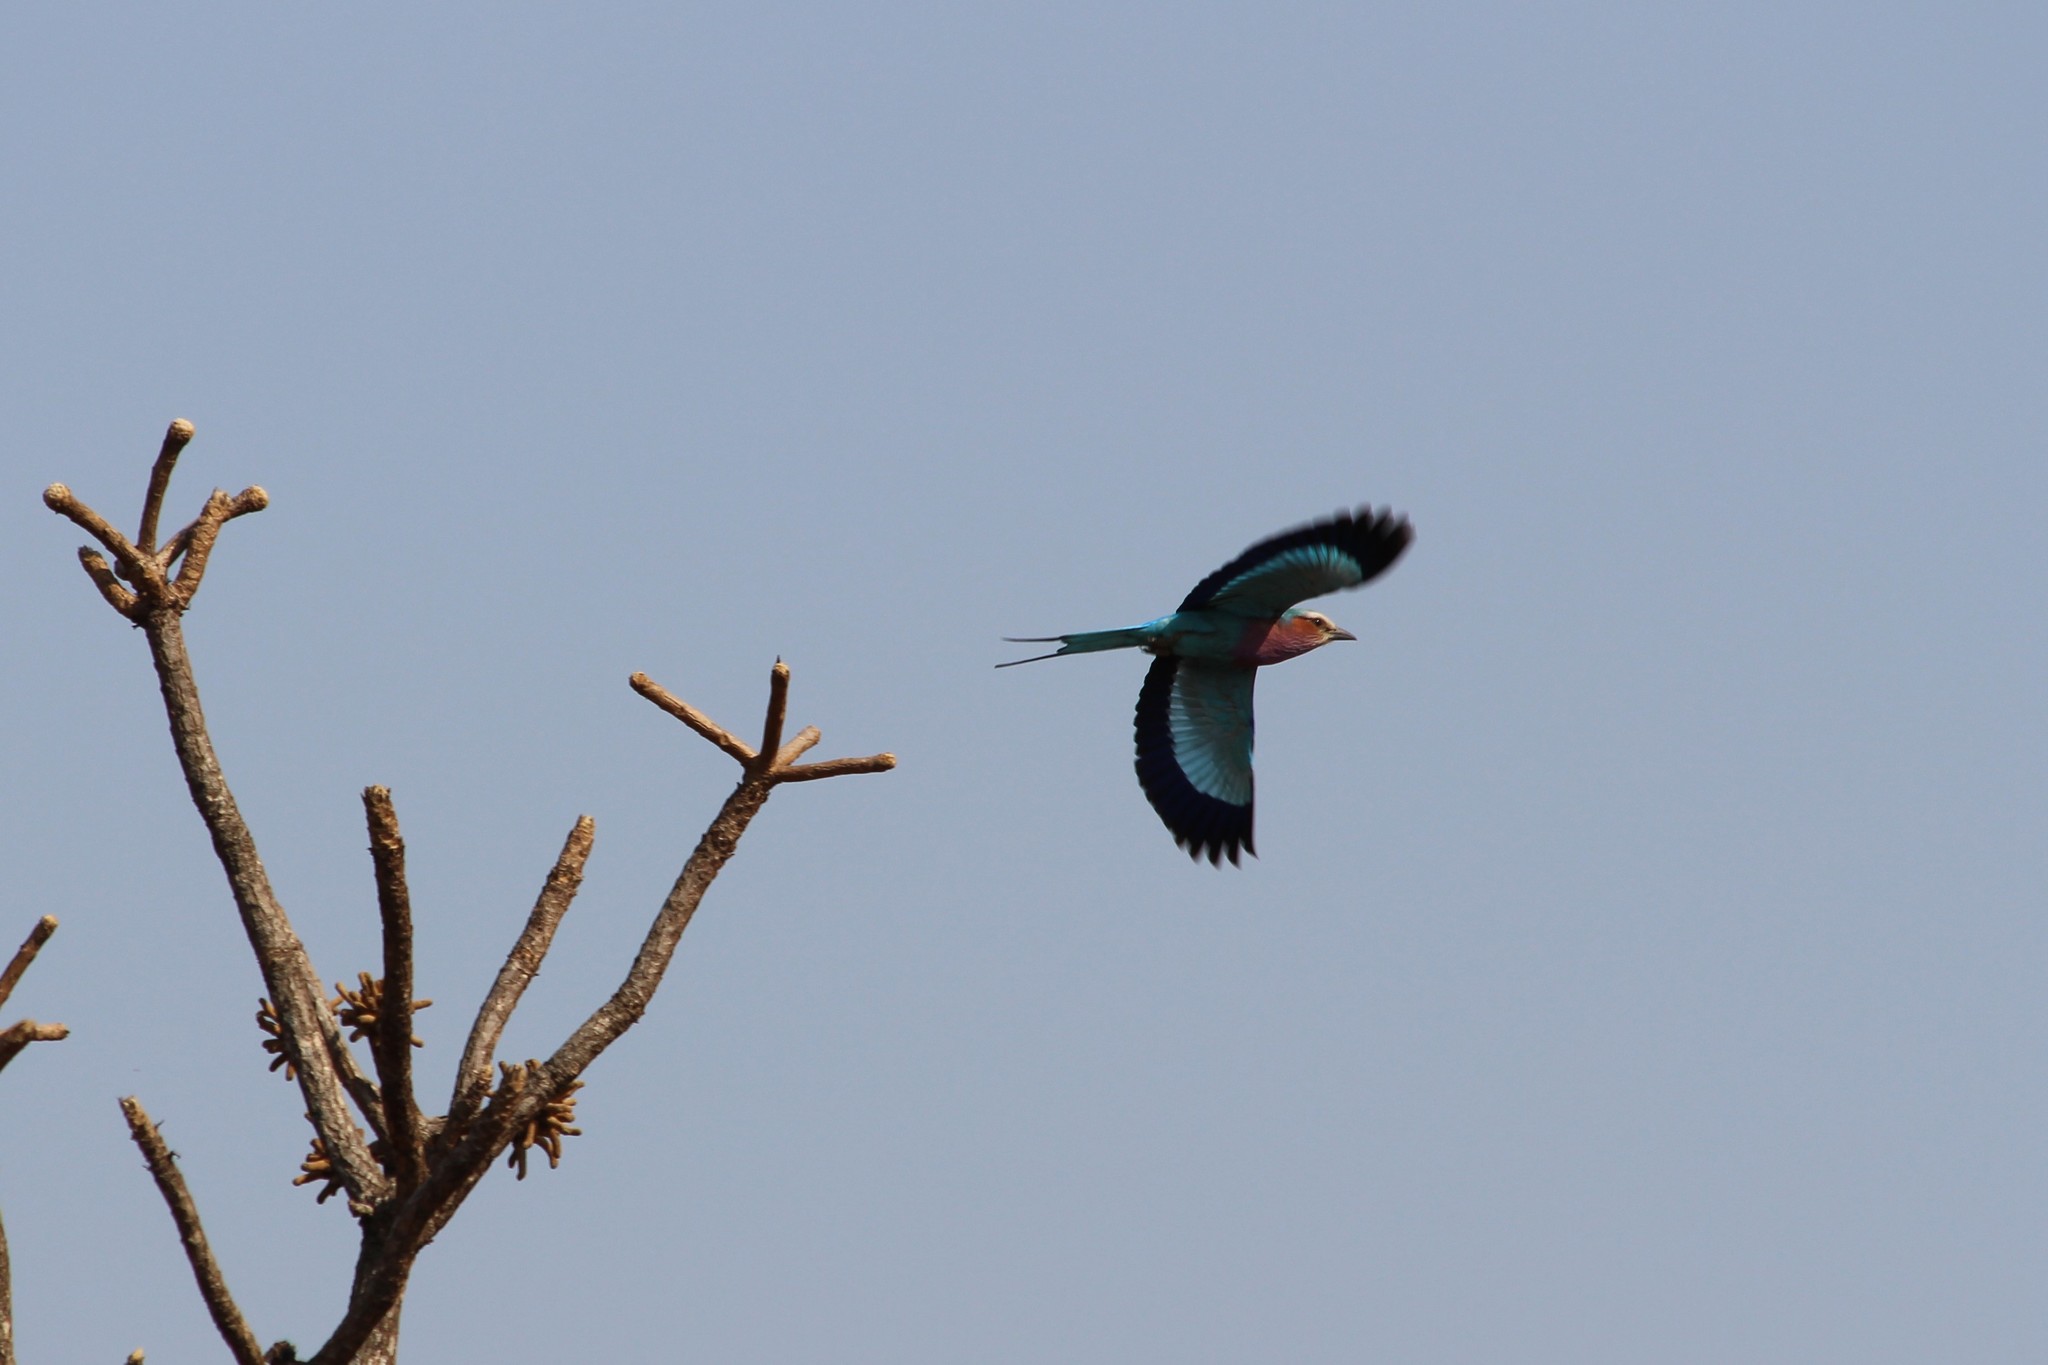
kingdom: Animalia
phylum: Chordata
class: Aves
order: Coraciiformes
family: Coraciidae
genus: Coracias
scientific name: Coracias caudatus
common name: Lilac-breasted roller
